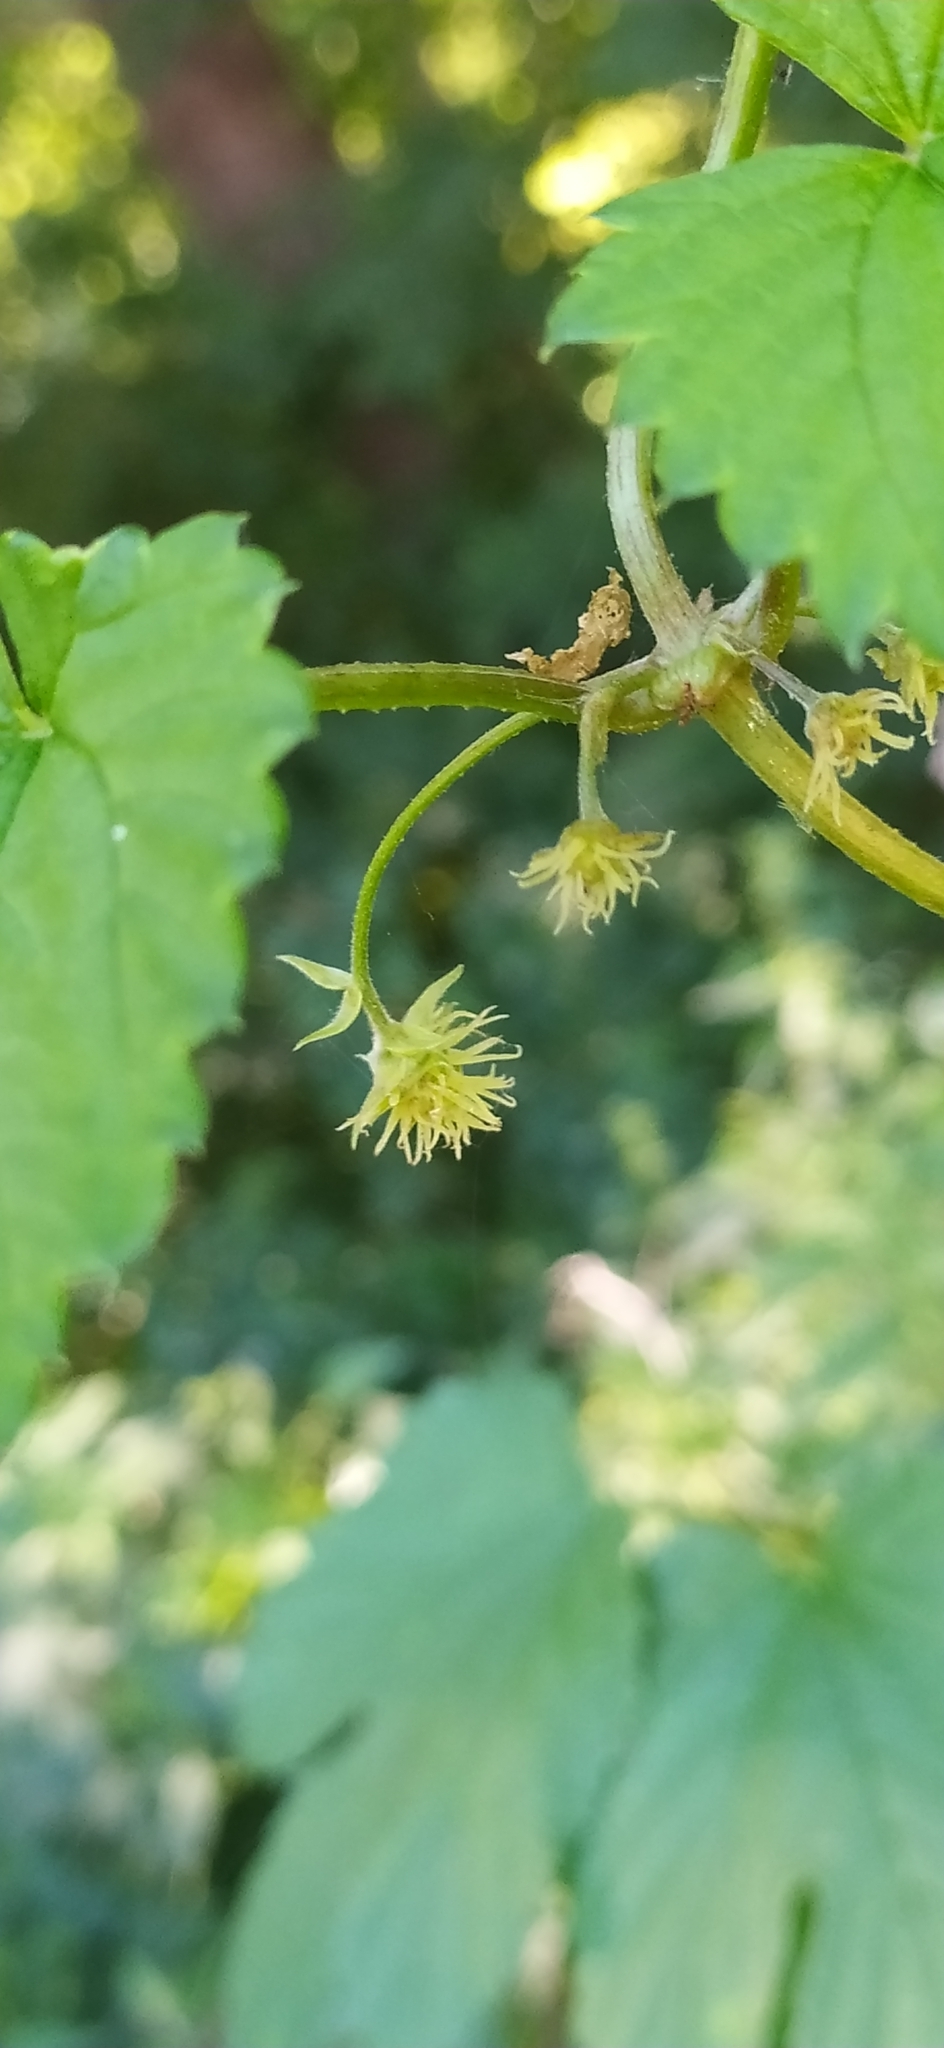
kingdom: Plantae
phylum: Tracheophyta
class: Magnoliopsida
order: Rosales
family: Cannabaceae
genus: Humulus
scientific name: Humulus lupulus
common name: Hop
